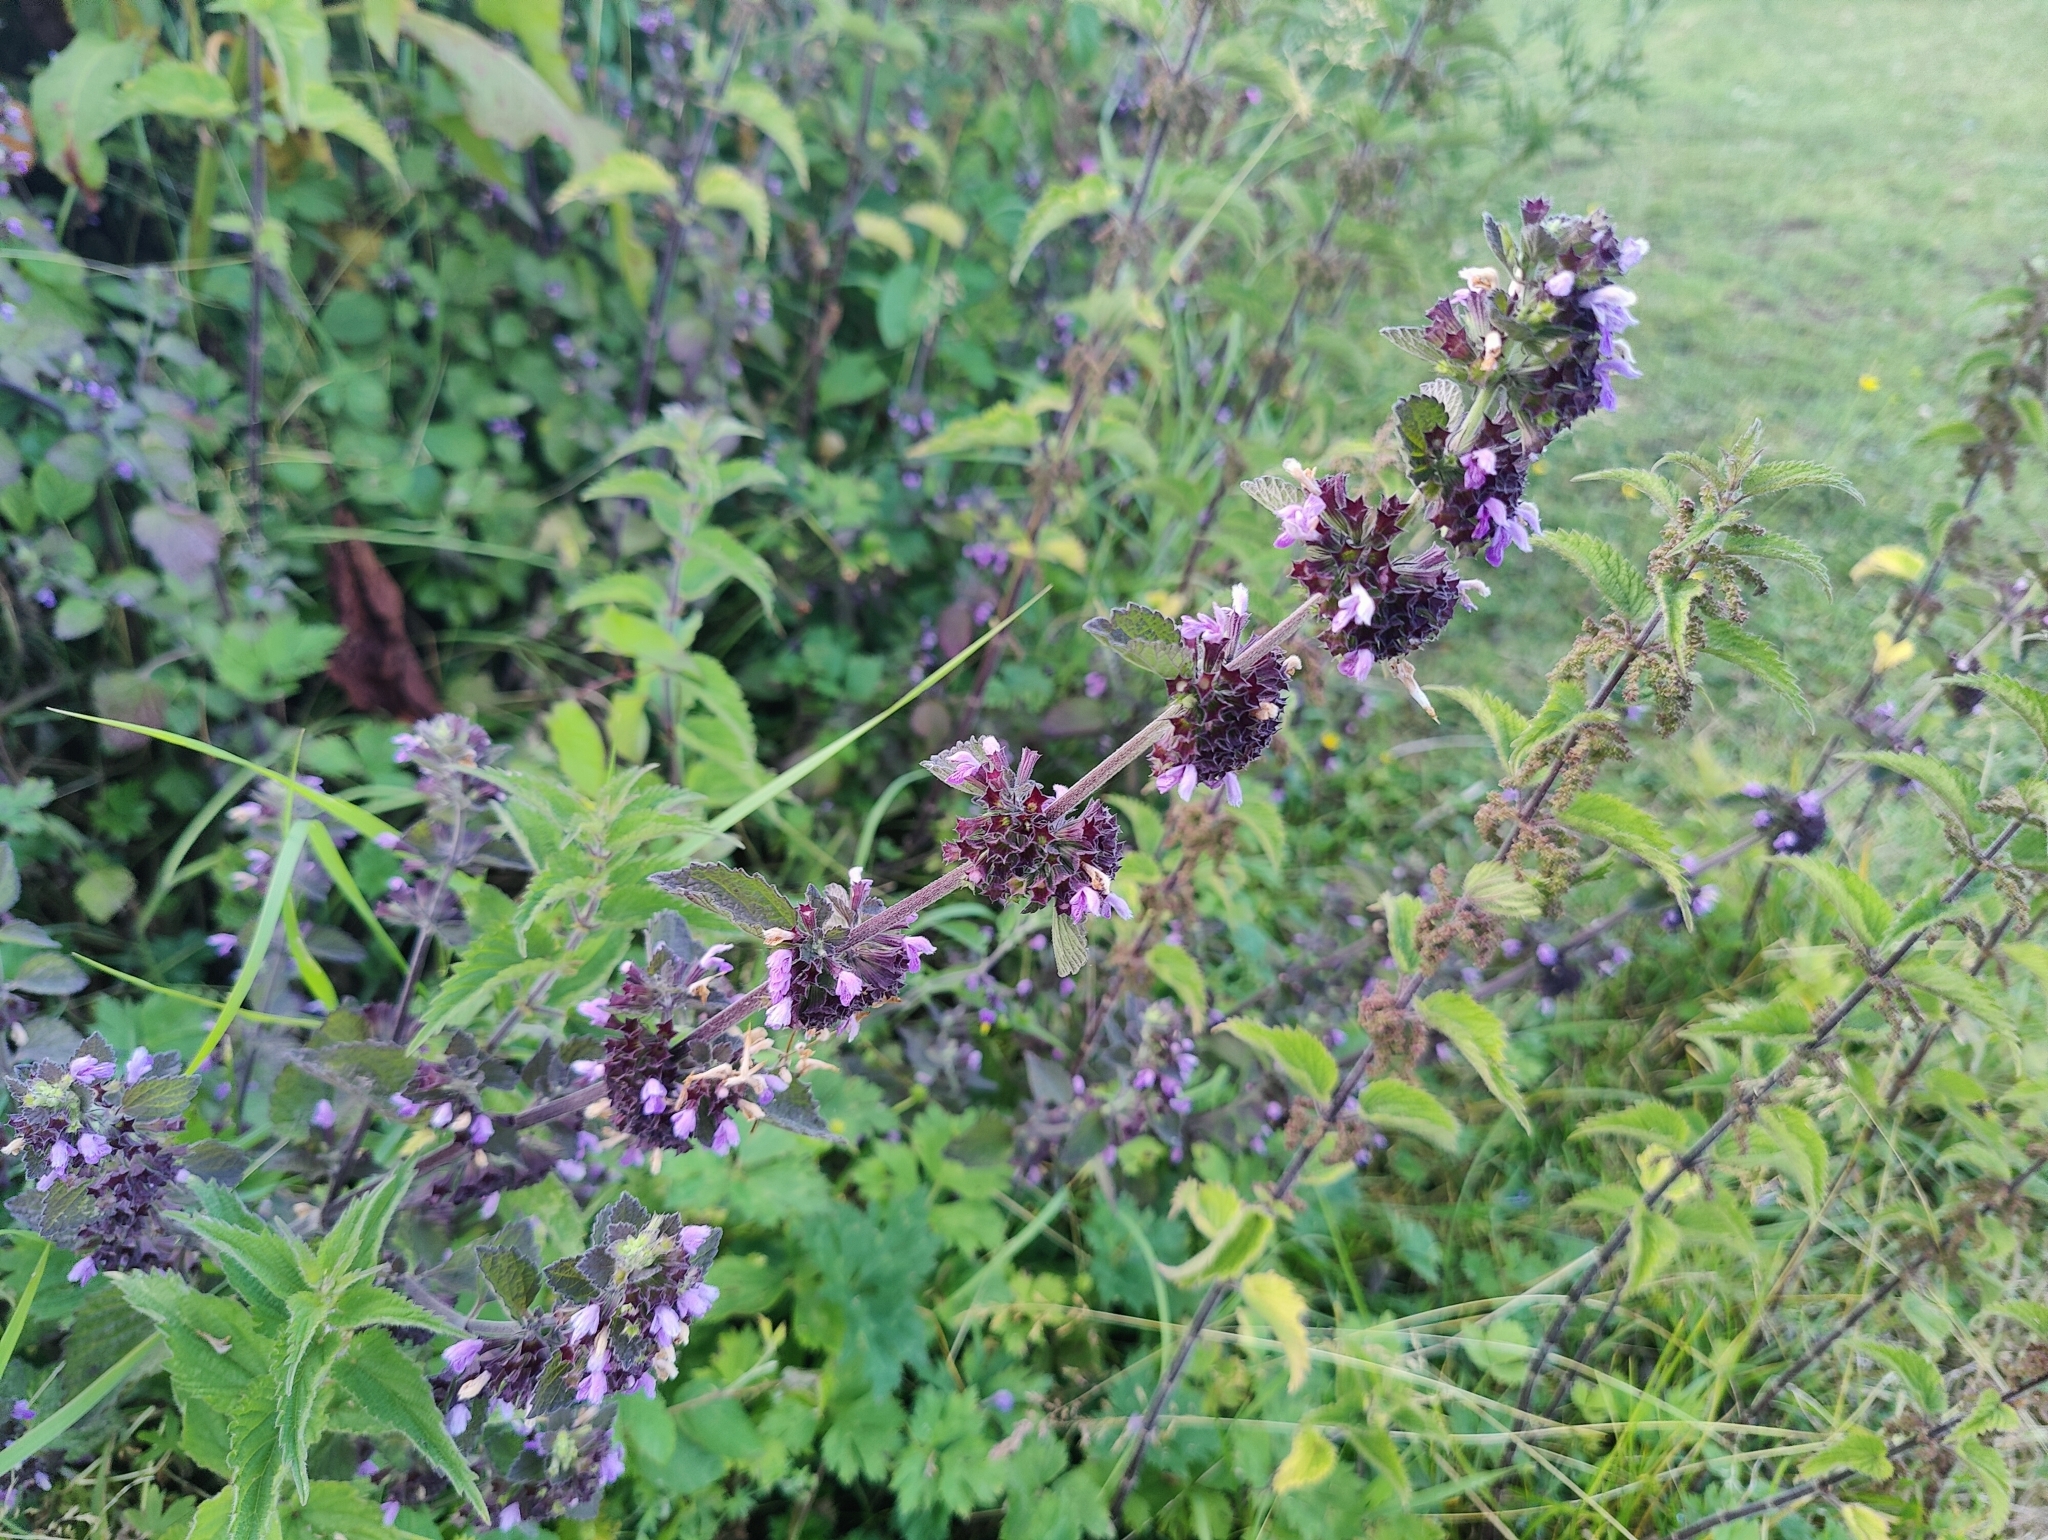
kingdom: Plantae
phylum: Tracheophyta
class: Magnoliopsida
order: Lamiales
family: Lamiaceae
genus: Ballota
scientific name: Ballota nigra
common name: Black horehound
